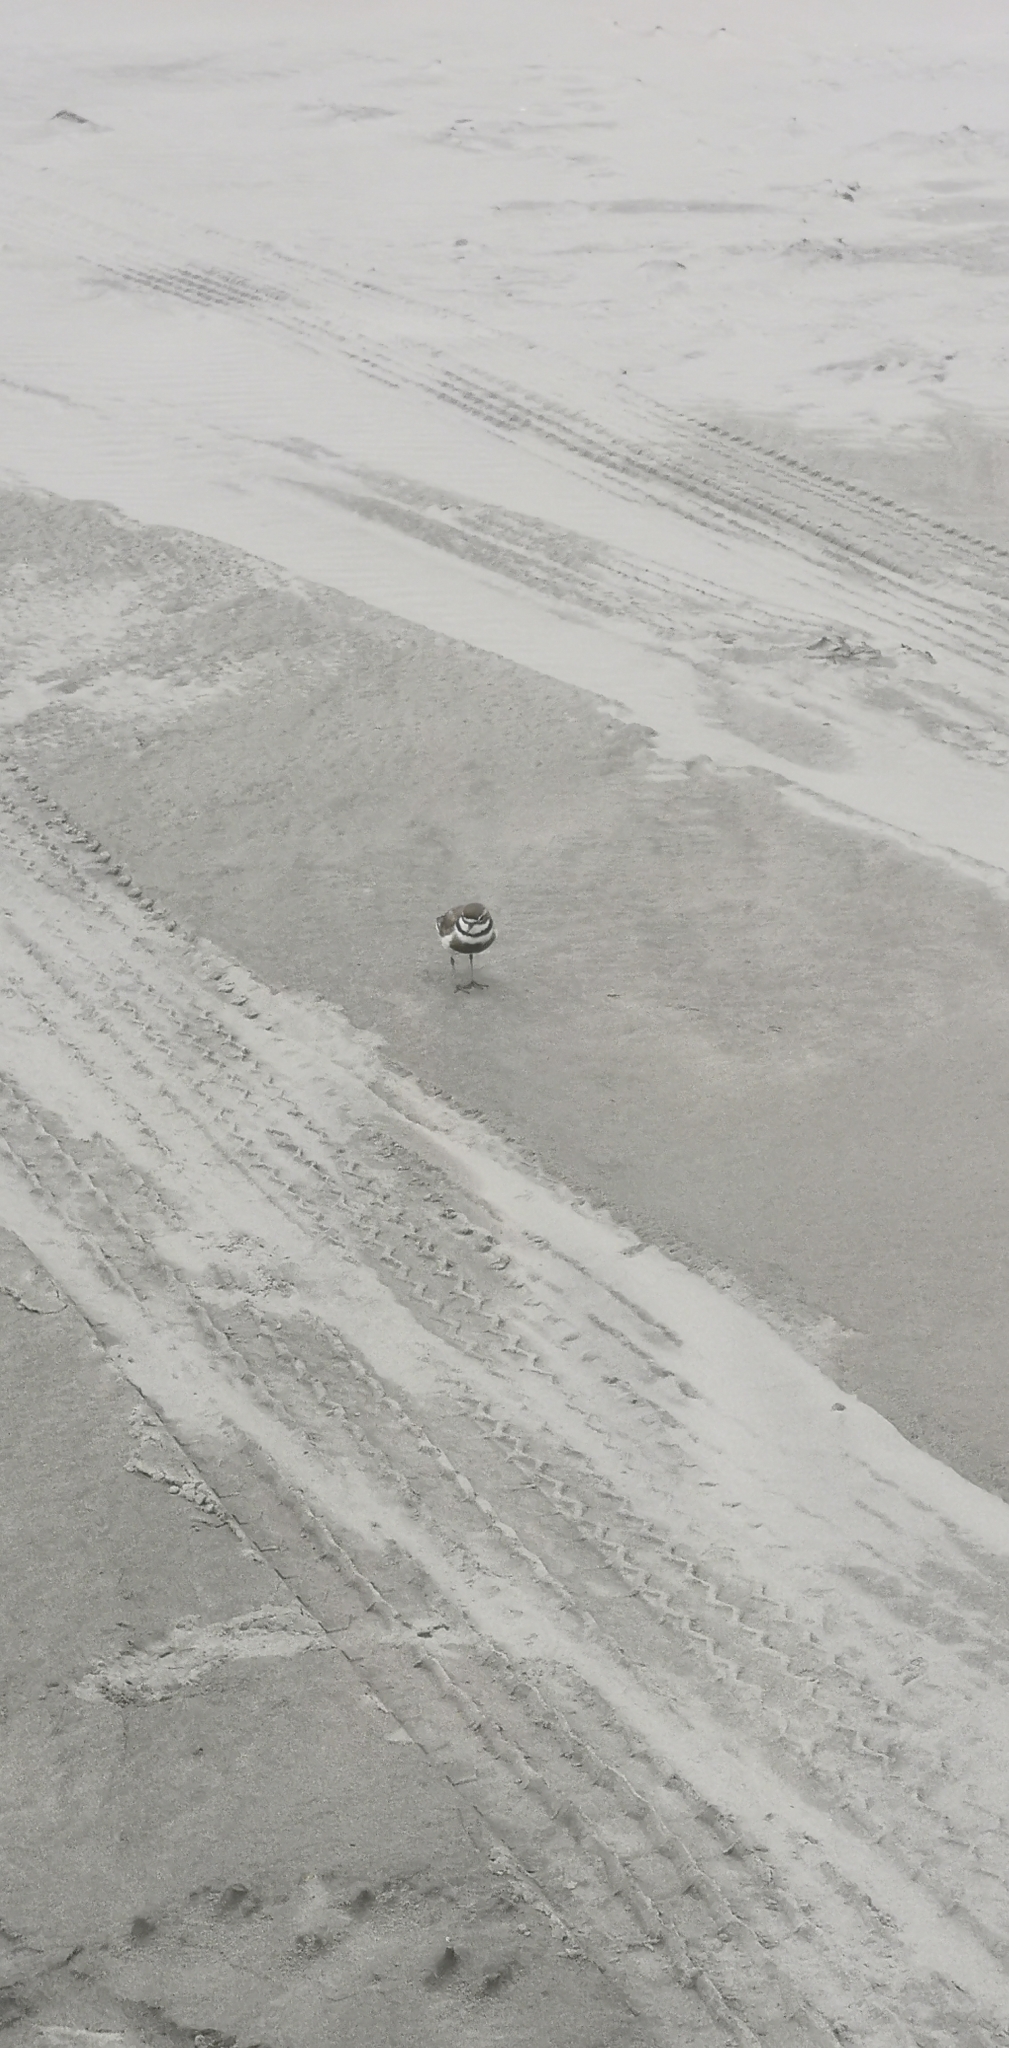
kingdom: Animalia
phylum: Chordata
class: Aves
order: Charadriiformes
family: Charadriidae
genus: Anarhynchus
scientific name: Anarhynchus
